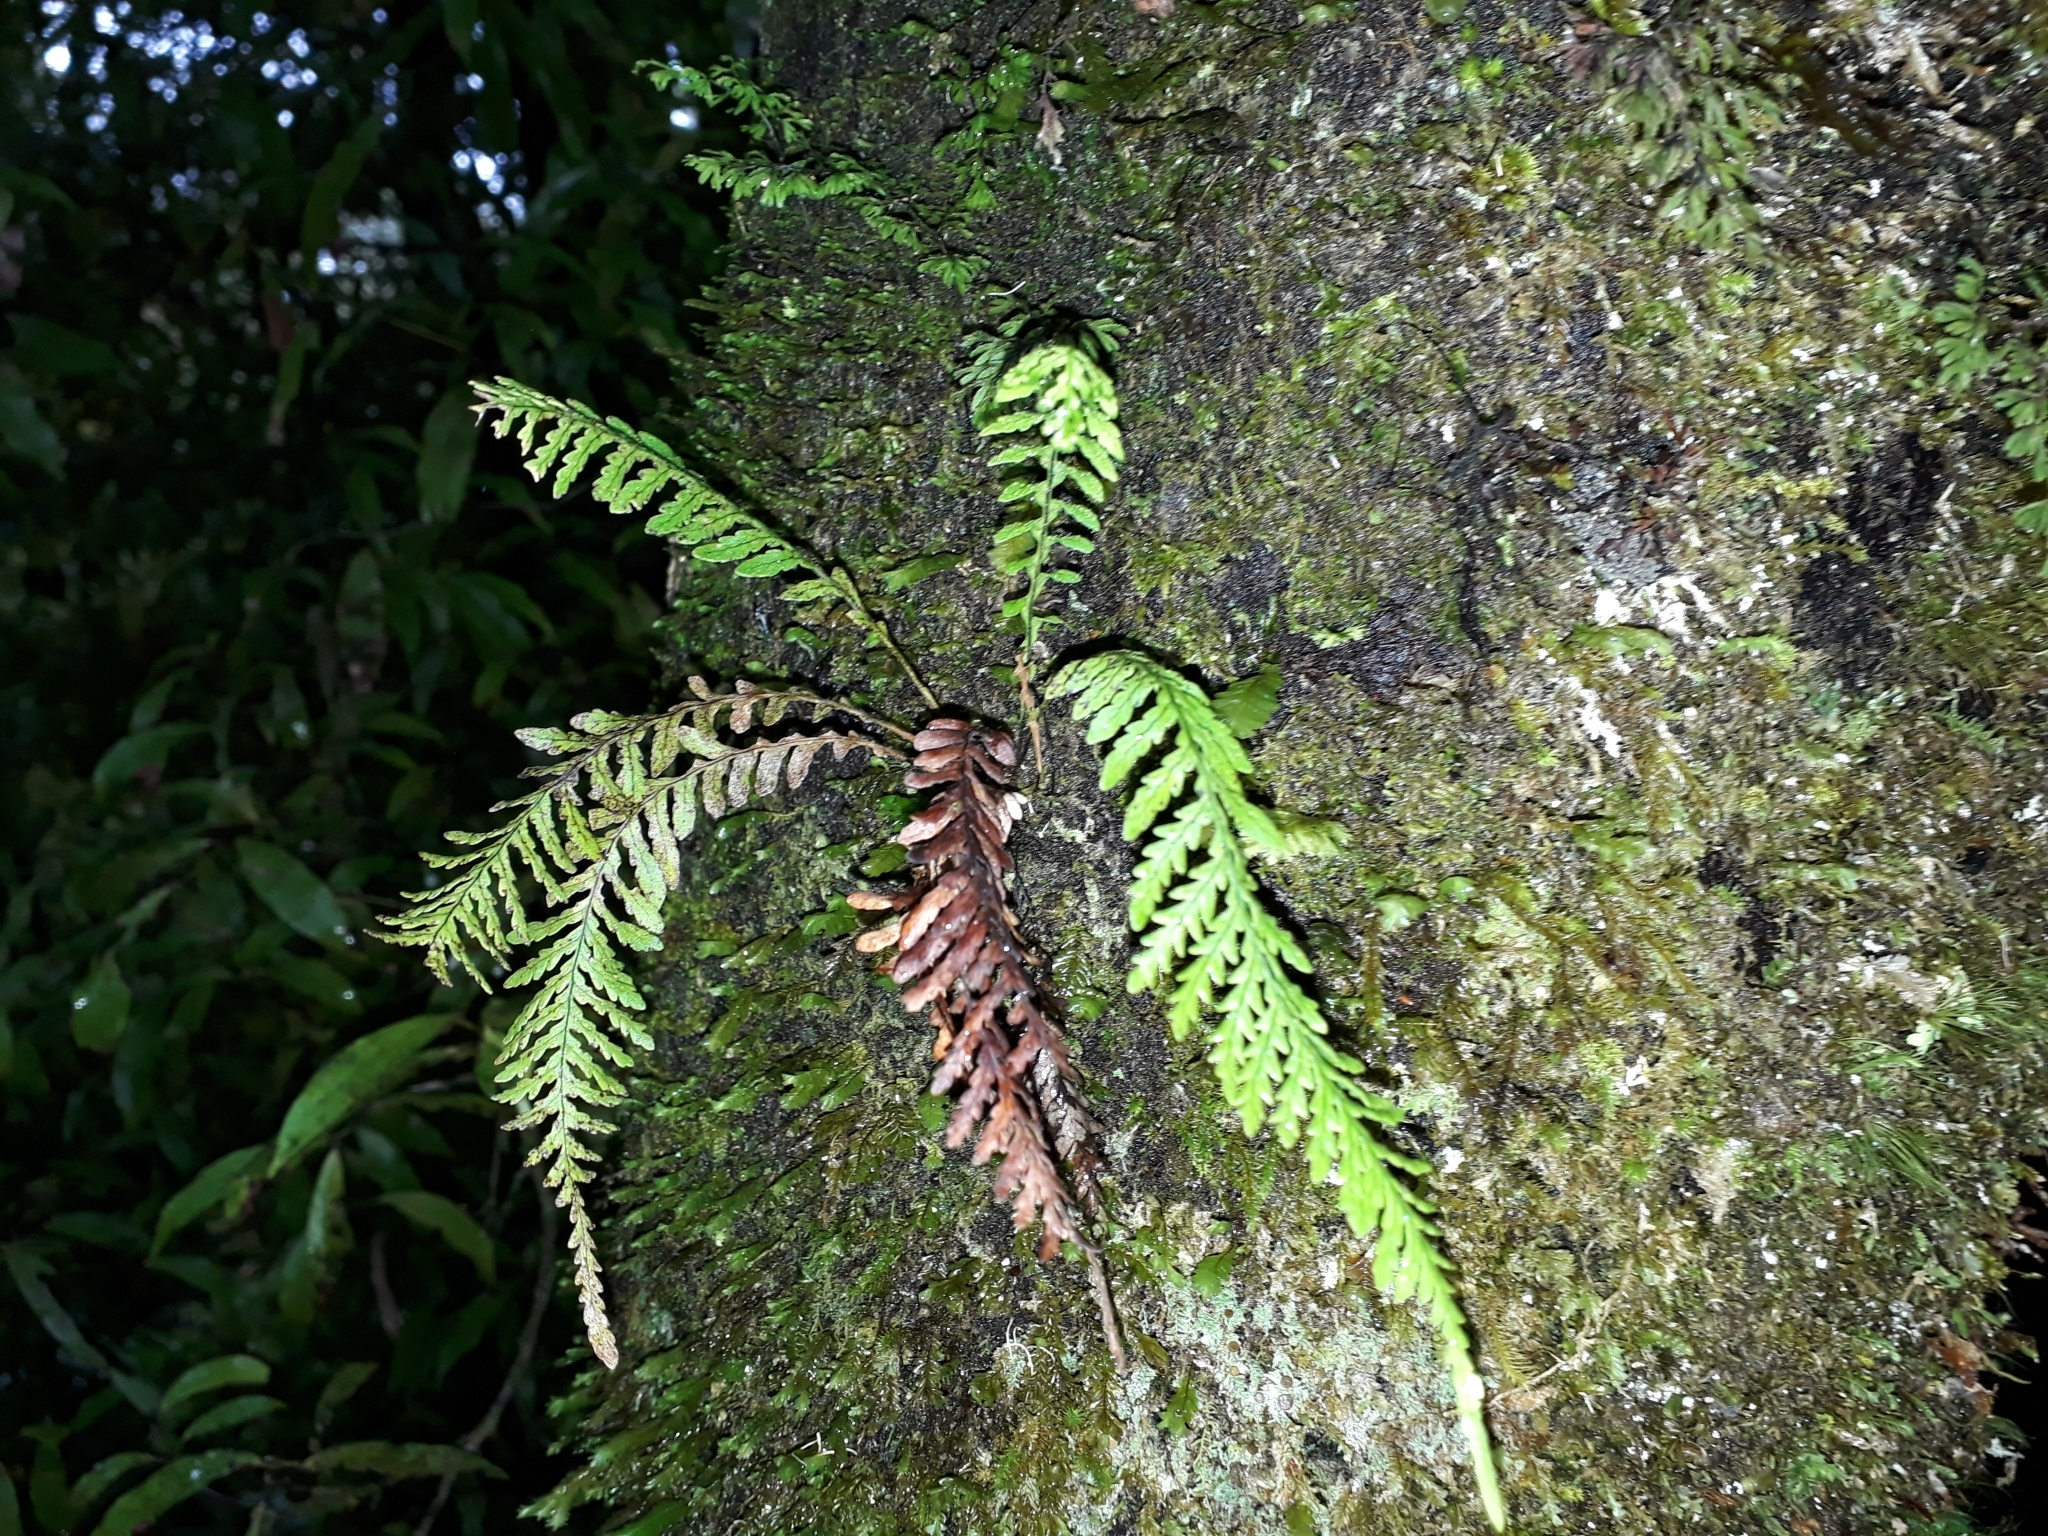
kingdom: Plantae
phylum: Tracheophyta
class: Polypodiopsida
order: Polypodiales
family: Polypodiaceae
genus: Notogrammitis
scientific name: Notogrammitis heterophylla
